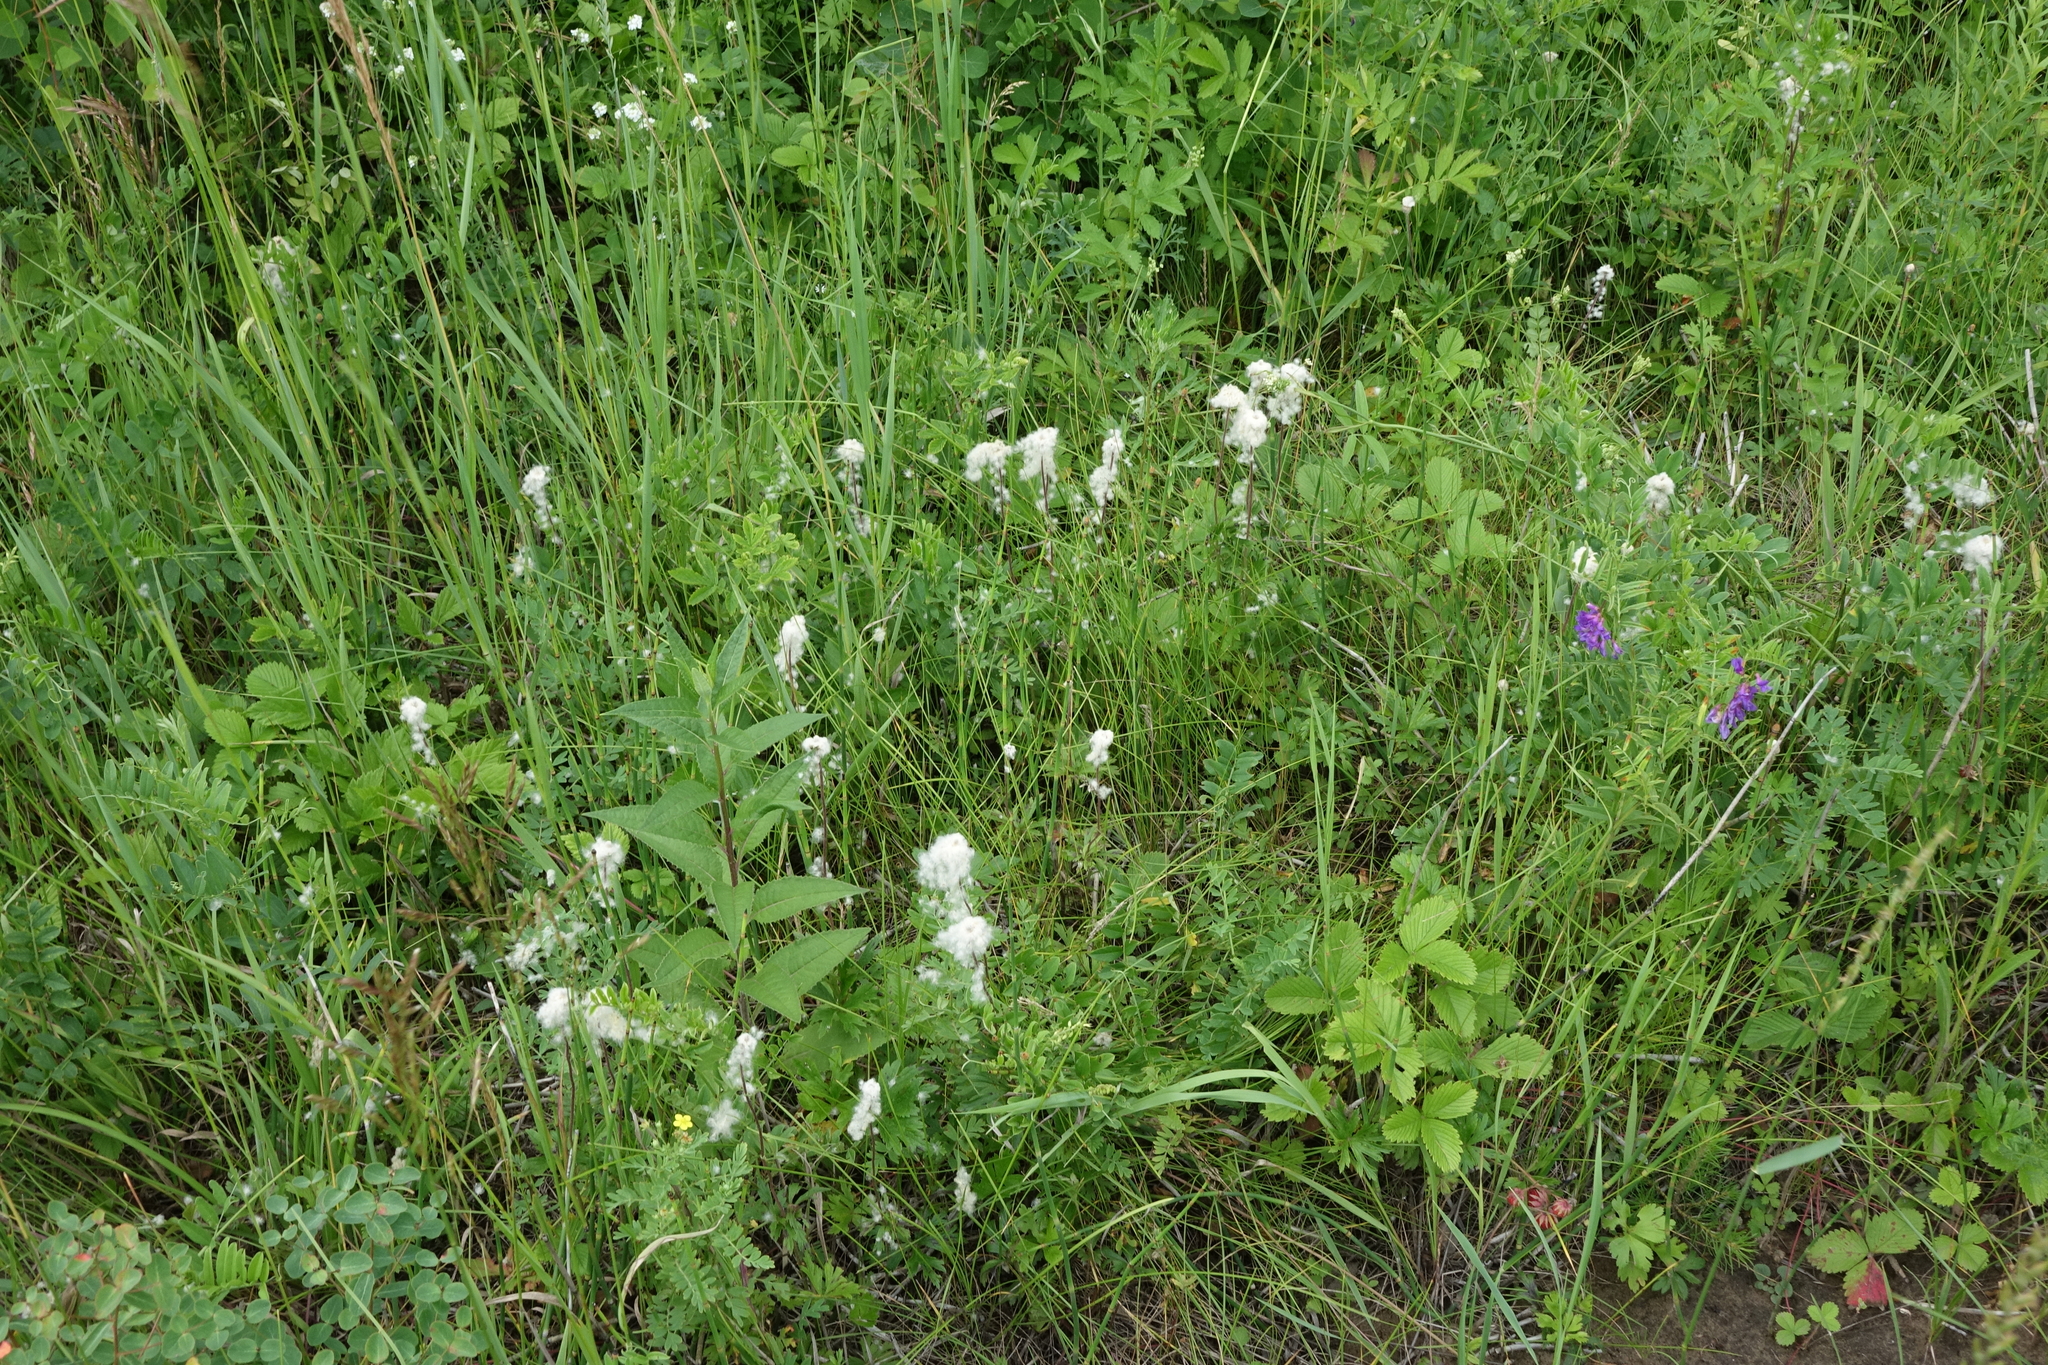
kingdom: Plantae
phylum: Tracheophyta
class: Magnoliopsida
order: Ranunculales
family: Ranunculaceae
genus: Anemone
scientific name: Anemone sylvestris
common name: Snowdrop anemone
